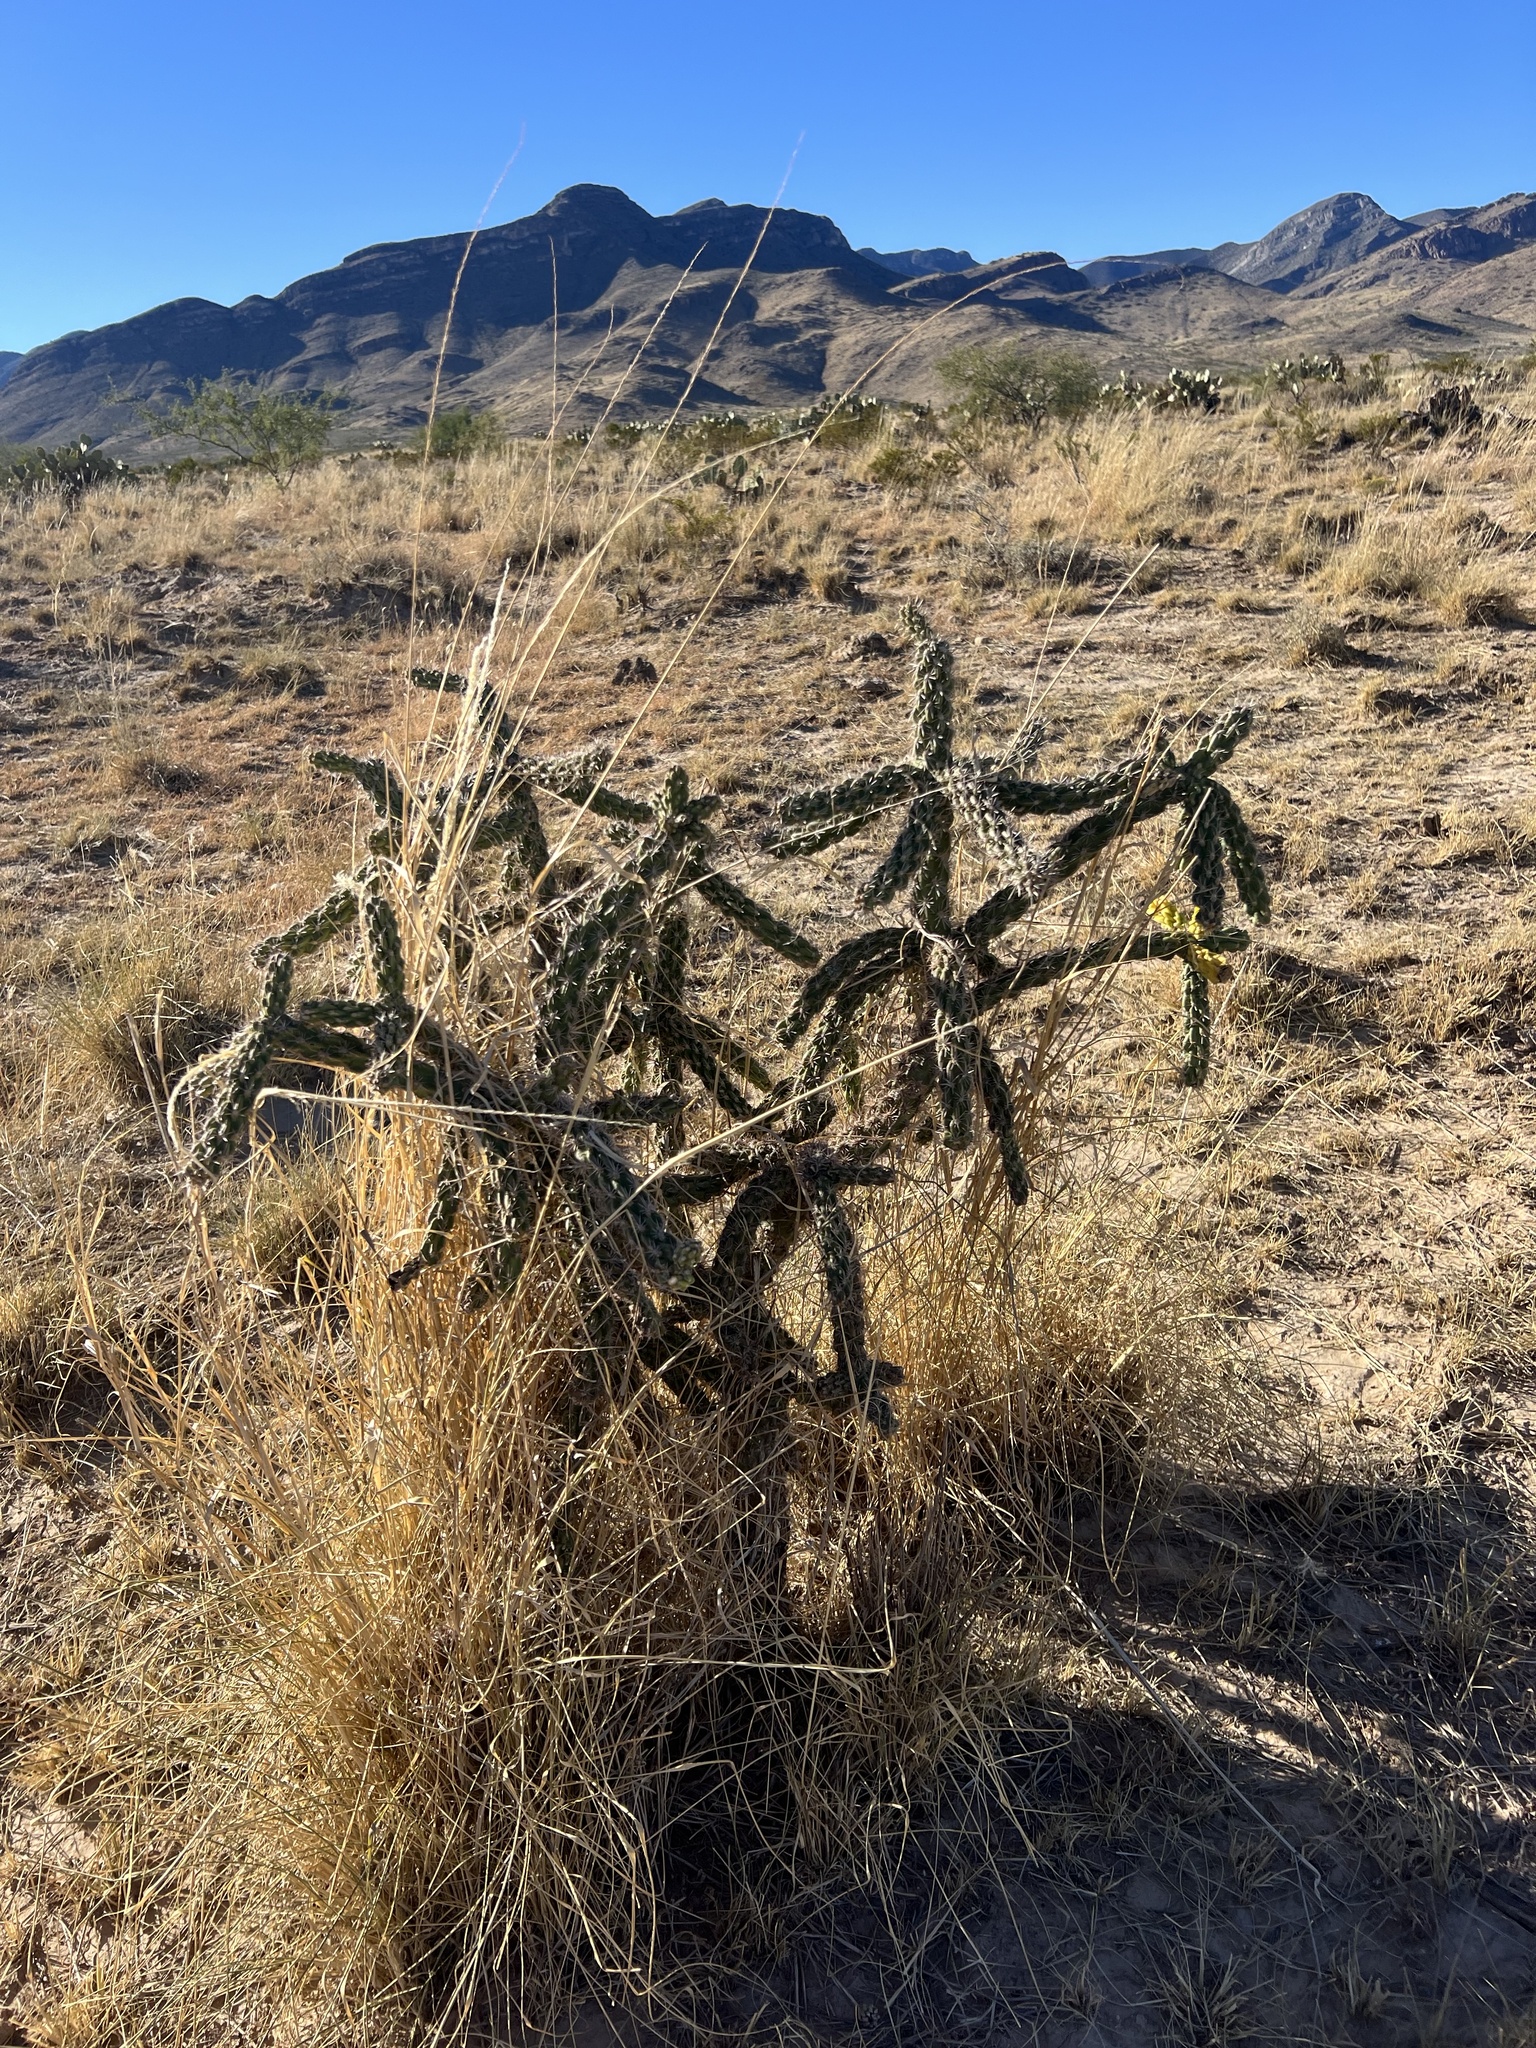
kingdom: Plantae
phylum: Tracheophyta
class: Magnoliopsida
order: Caryophyllales
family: Cactaceae
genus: Cylindropuntia
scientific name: Cylindropuntia imbricata
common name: Candelabrum cactus
